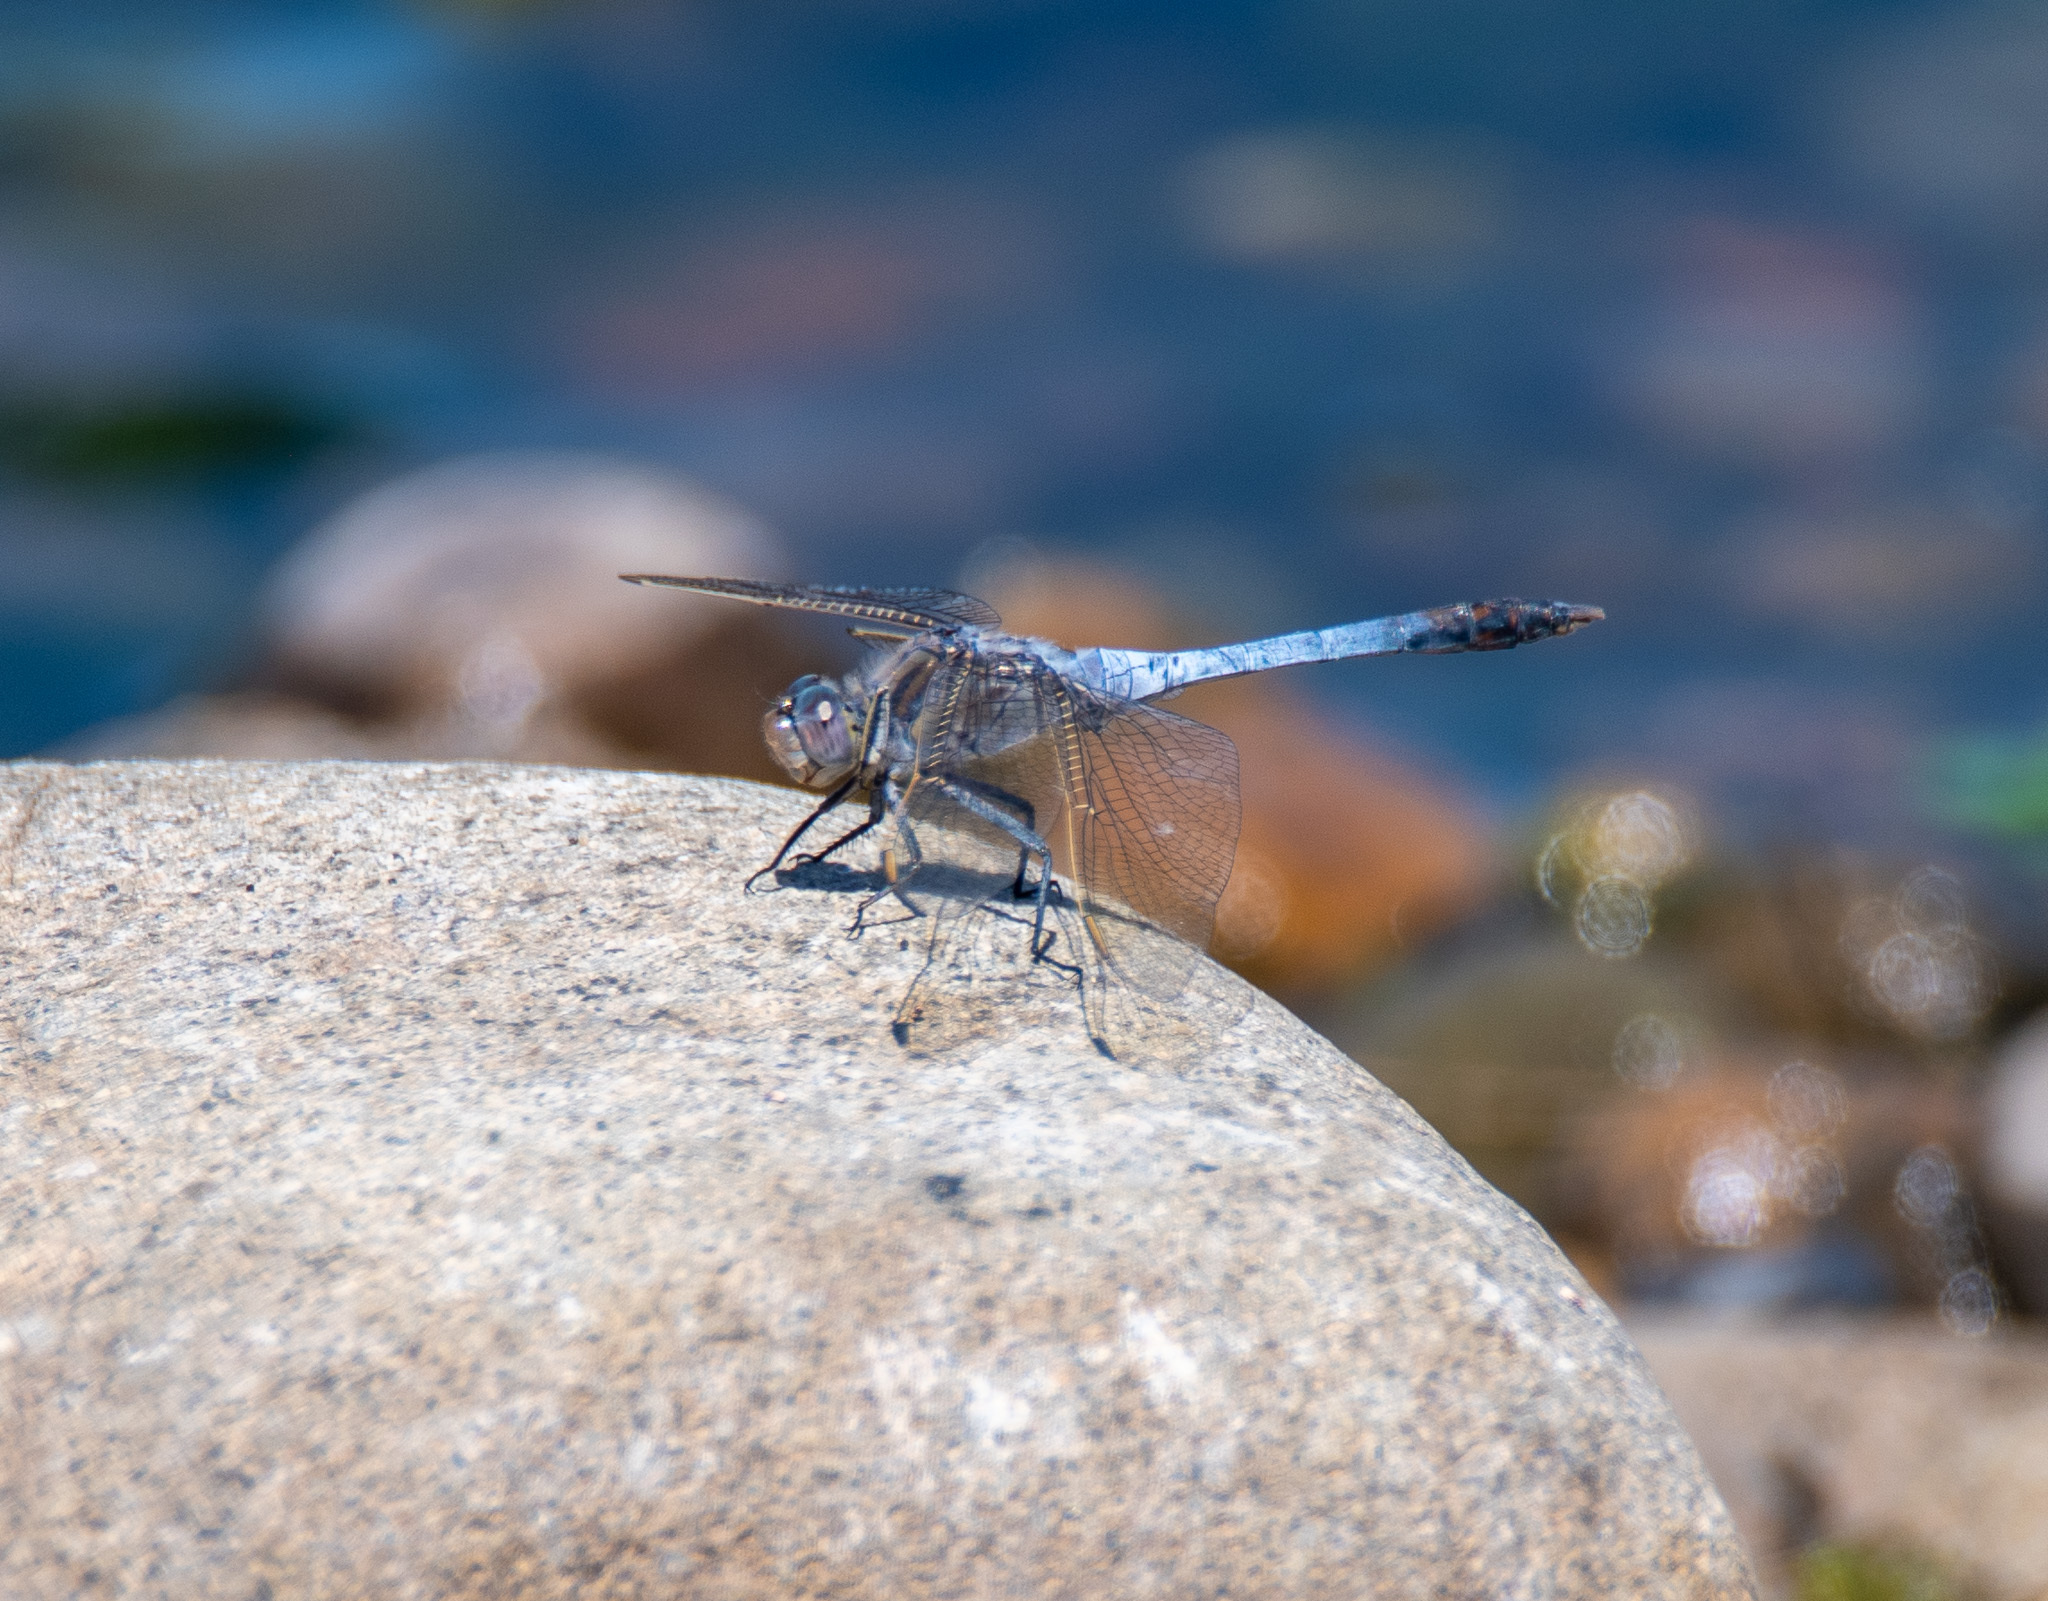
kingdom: Animalia
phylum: Arthropoda
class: Insecta
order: Odonata
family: Libellulidae
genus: Orthetrum
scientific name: Orthetrum caledonicum
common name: Blue skimmer
